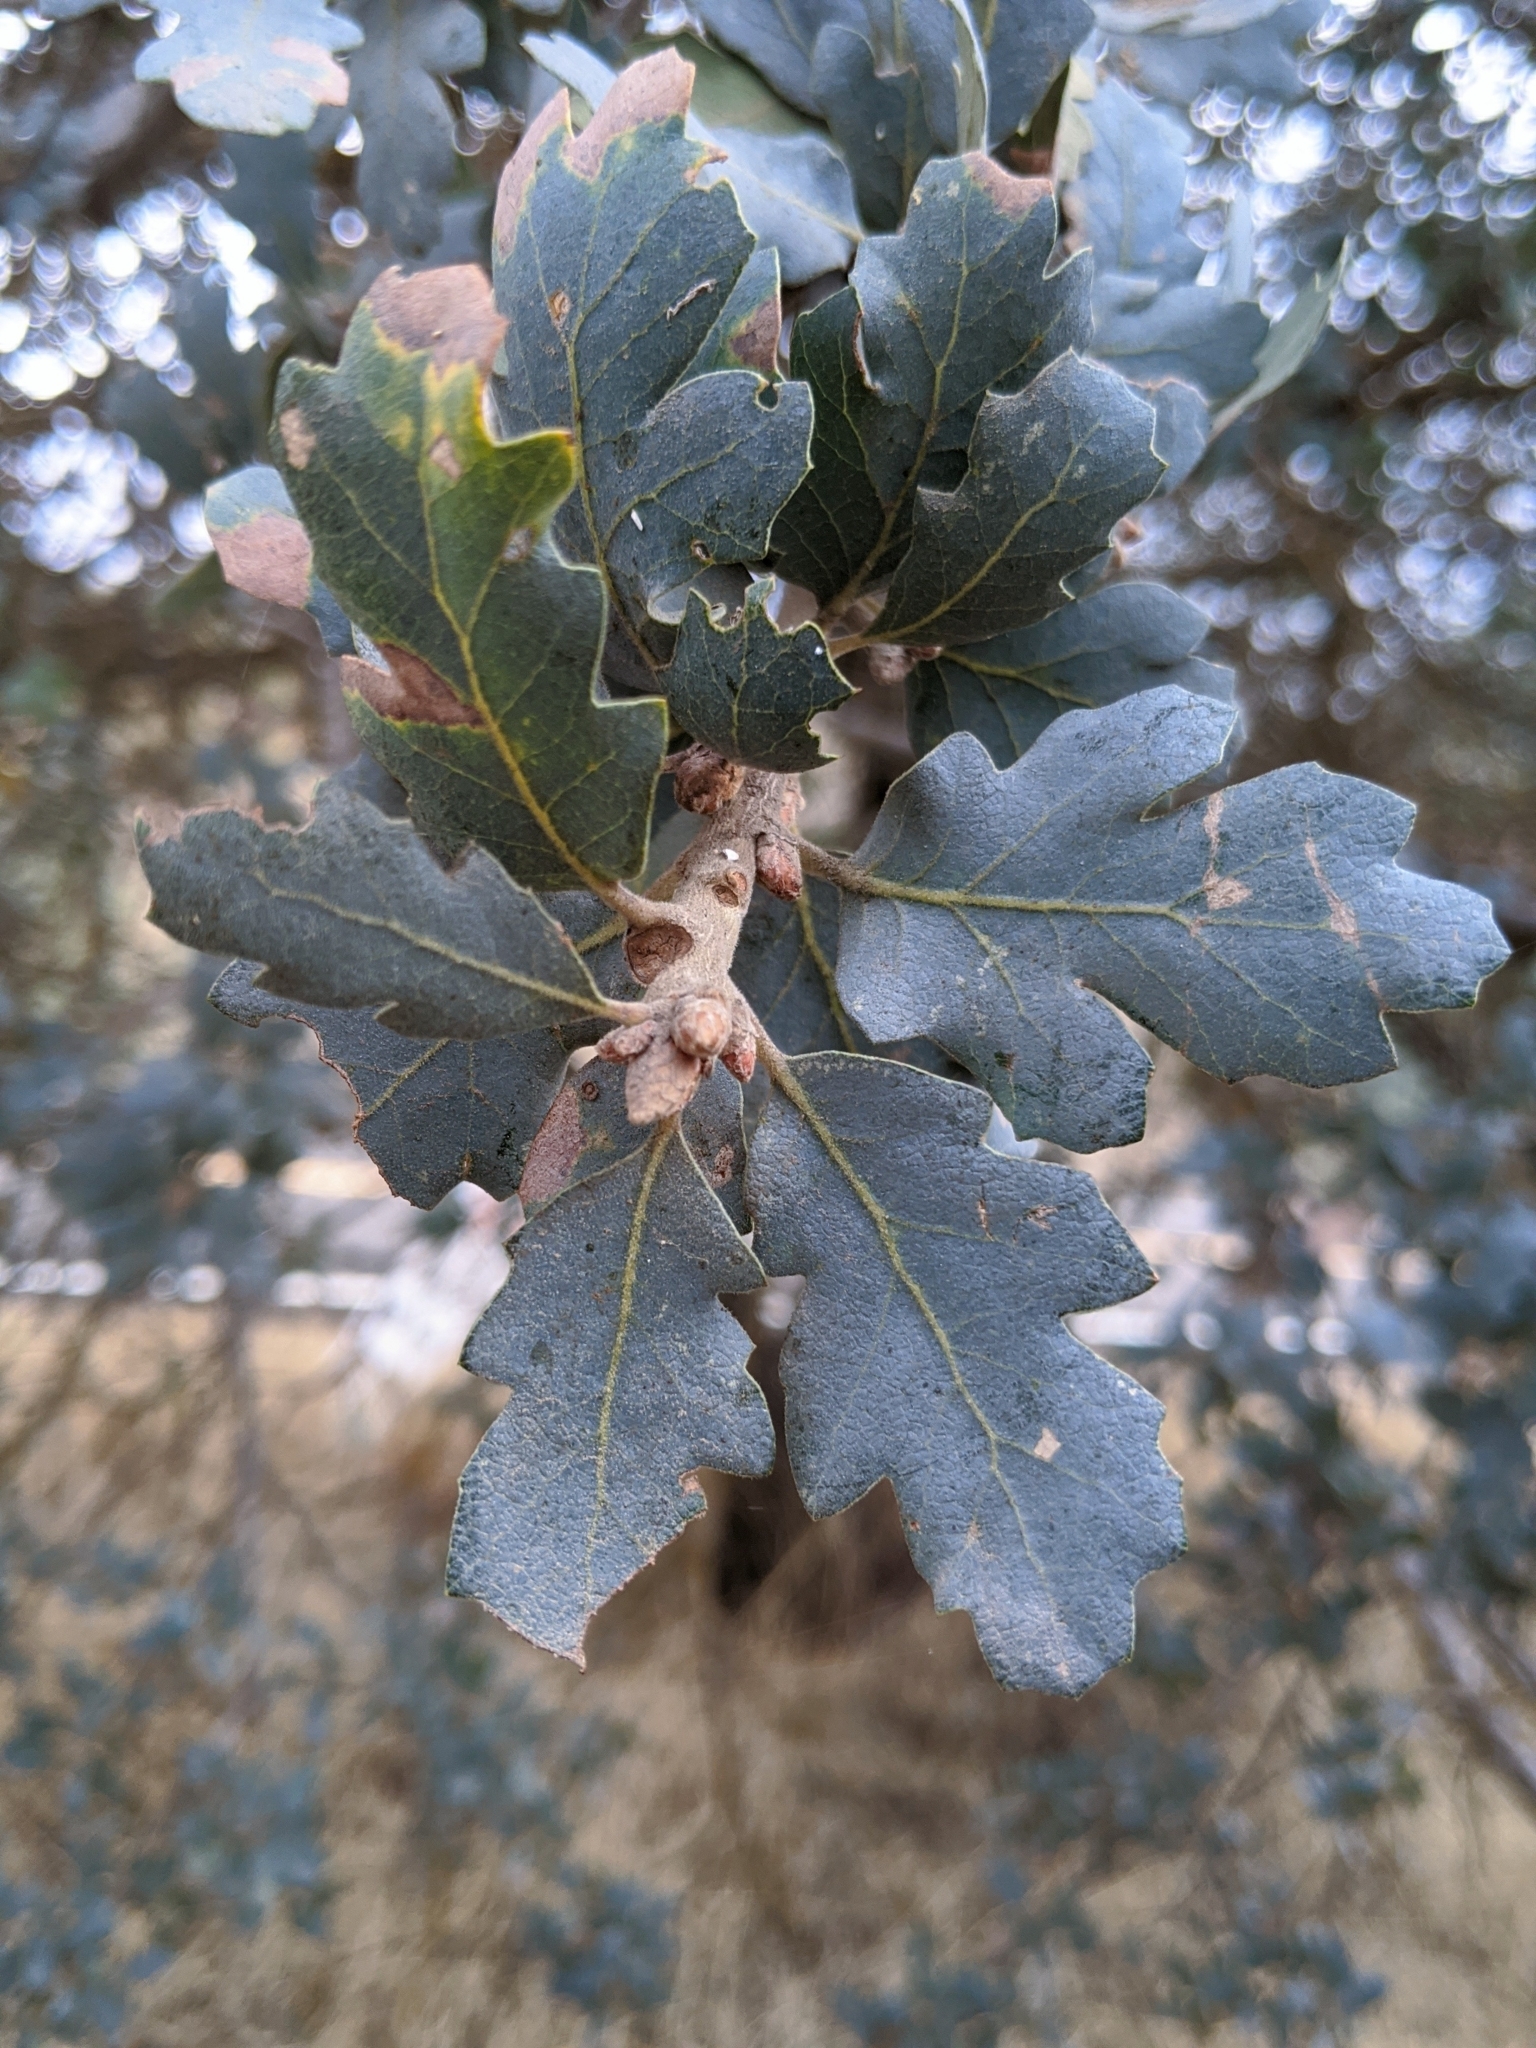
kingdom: Plantae
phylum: Tracheophyta
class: Magnoliopsida
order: Fagales
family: Fagaceae
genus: Quercus
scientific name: Quercus douglasii
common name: Blue oak
